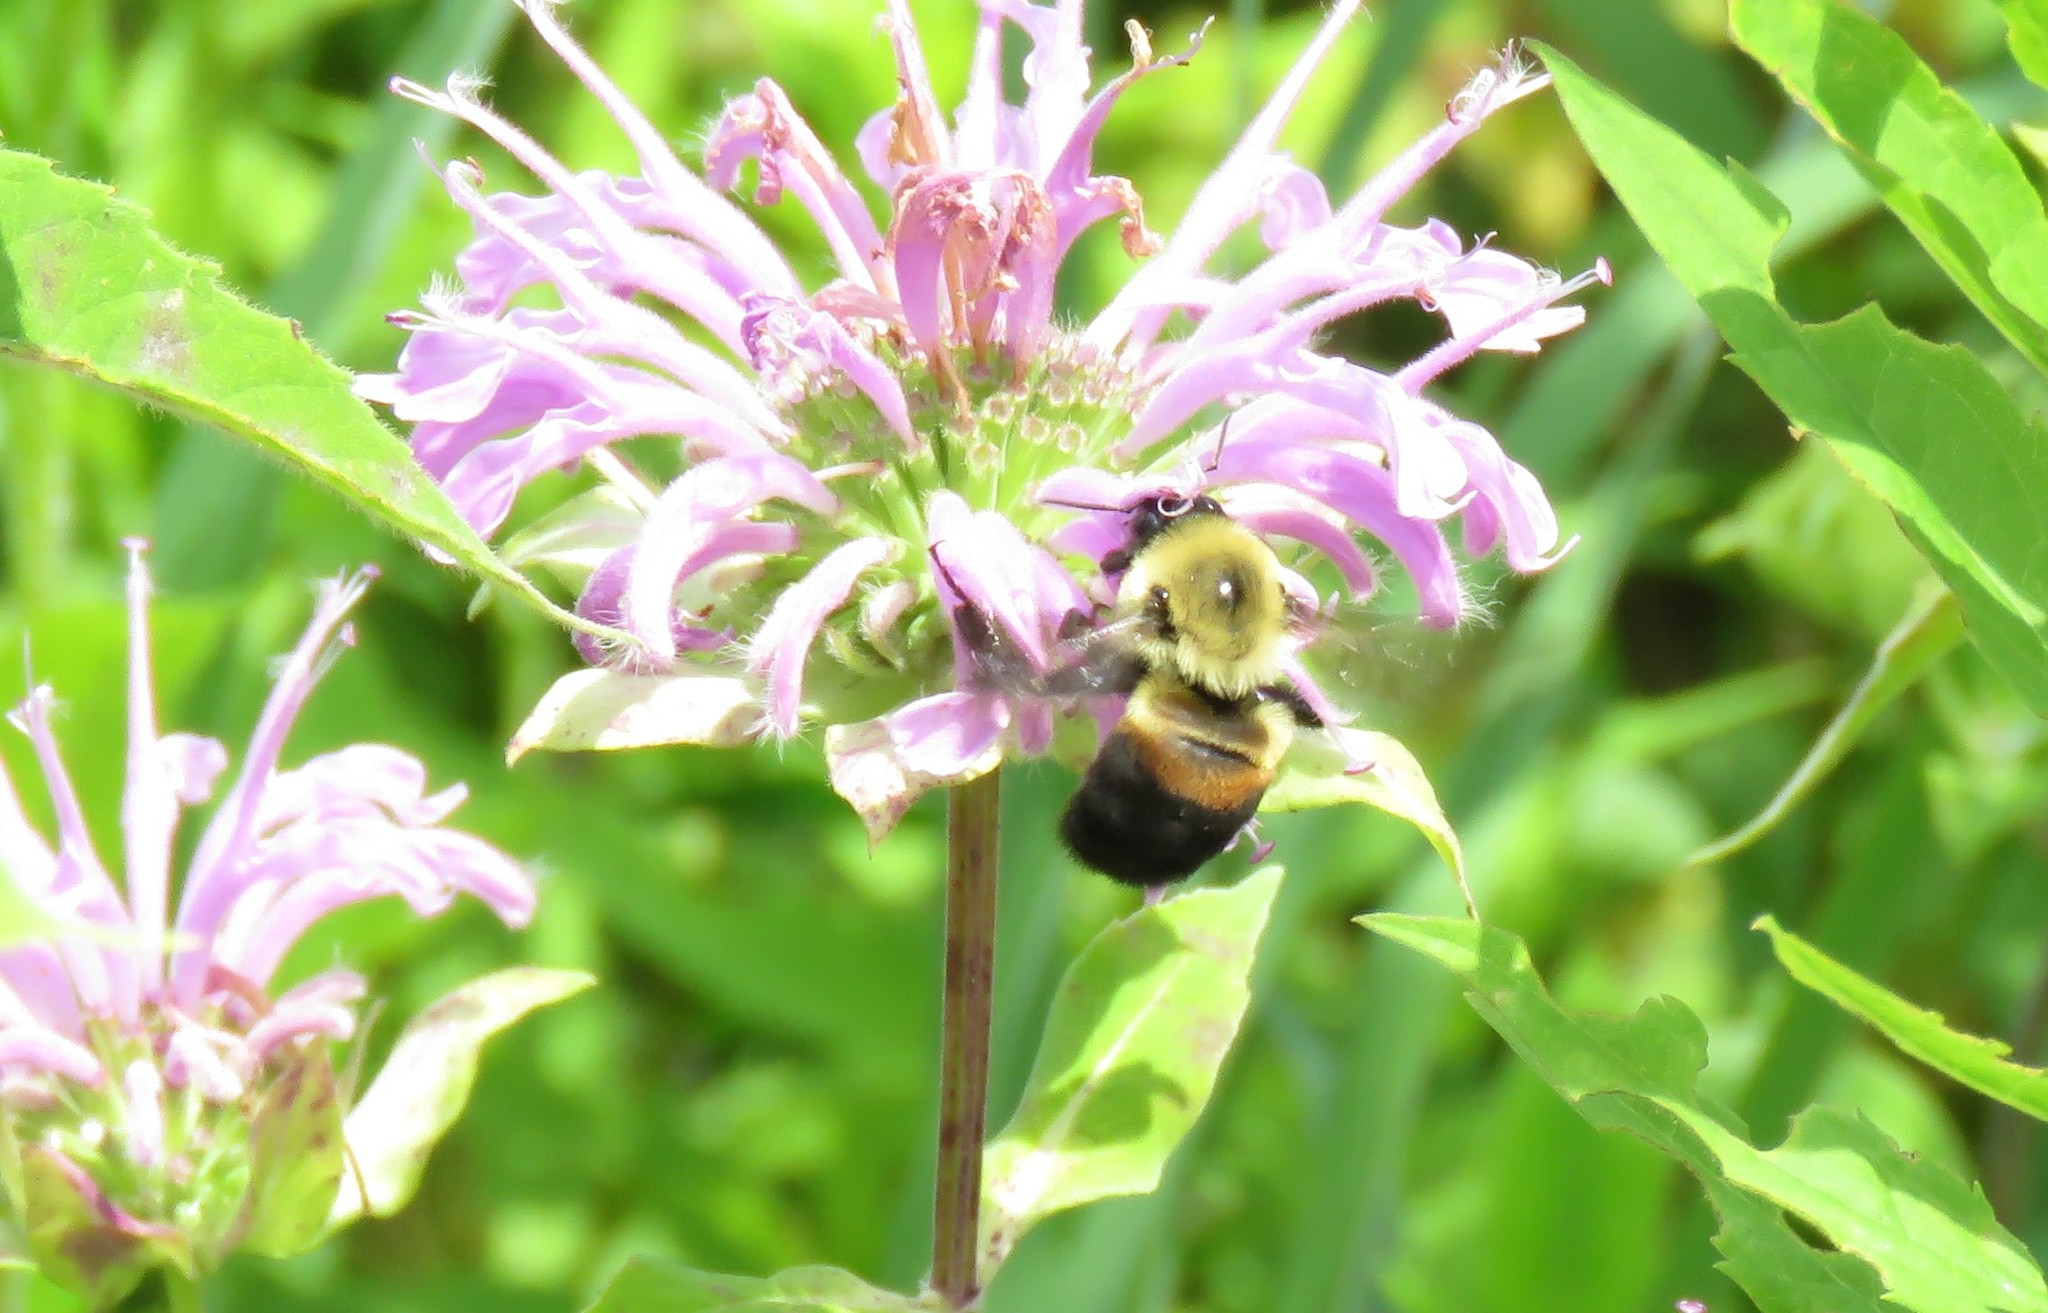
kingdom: Animalia
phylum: Arthropoda
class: Insecta
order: Hymenoptera
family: Apidae
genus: Bombus
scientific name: Bombus griseocollis
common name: Brown-belted bumble bee
